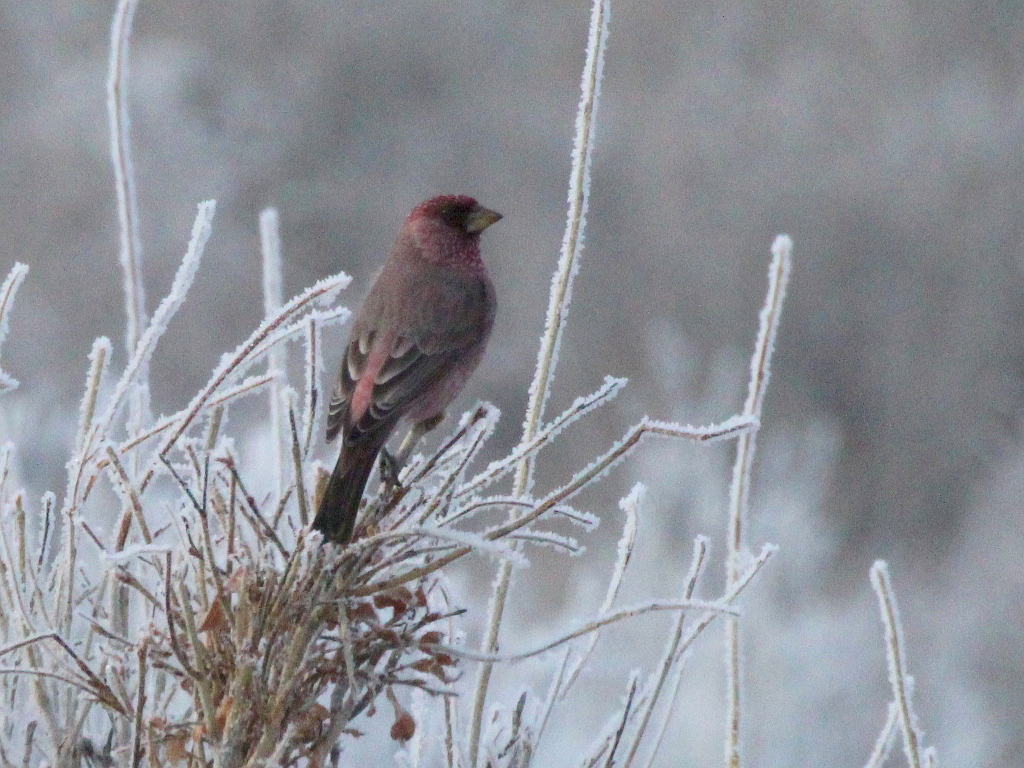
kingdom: Animalia
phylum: Chordata
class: Aves
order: Passeriformes
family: Fringillidae
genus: Carpodacus
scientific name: Carpodacus rubicilla
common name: Great rosefinch
